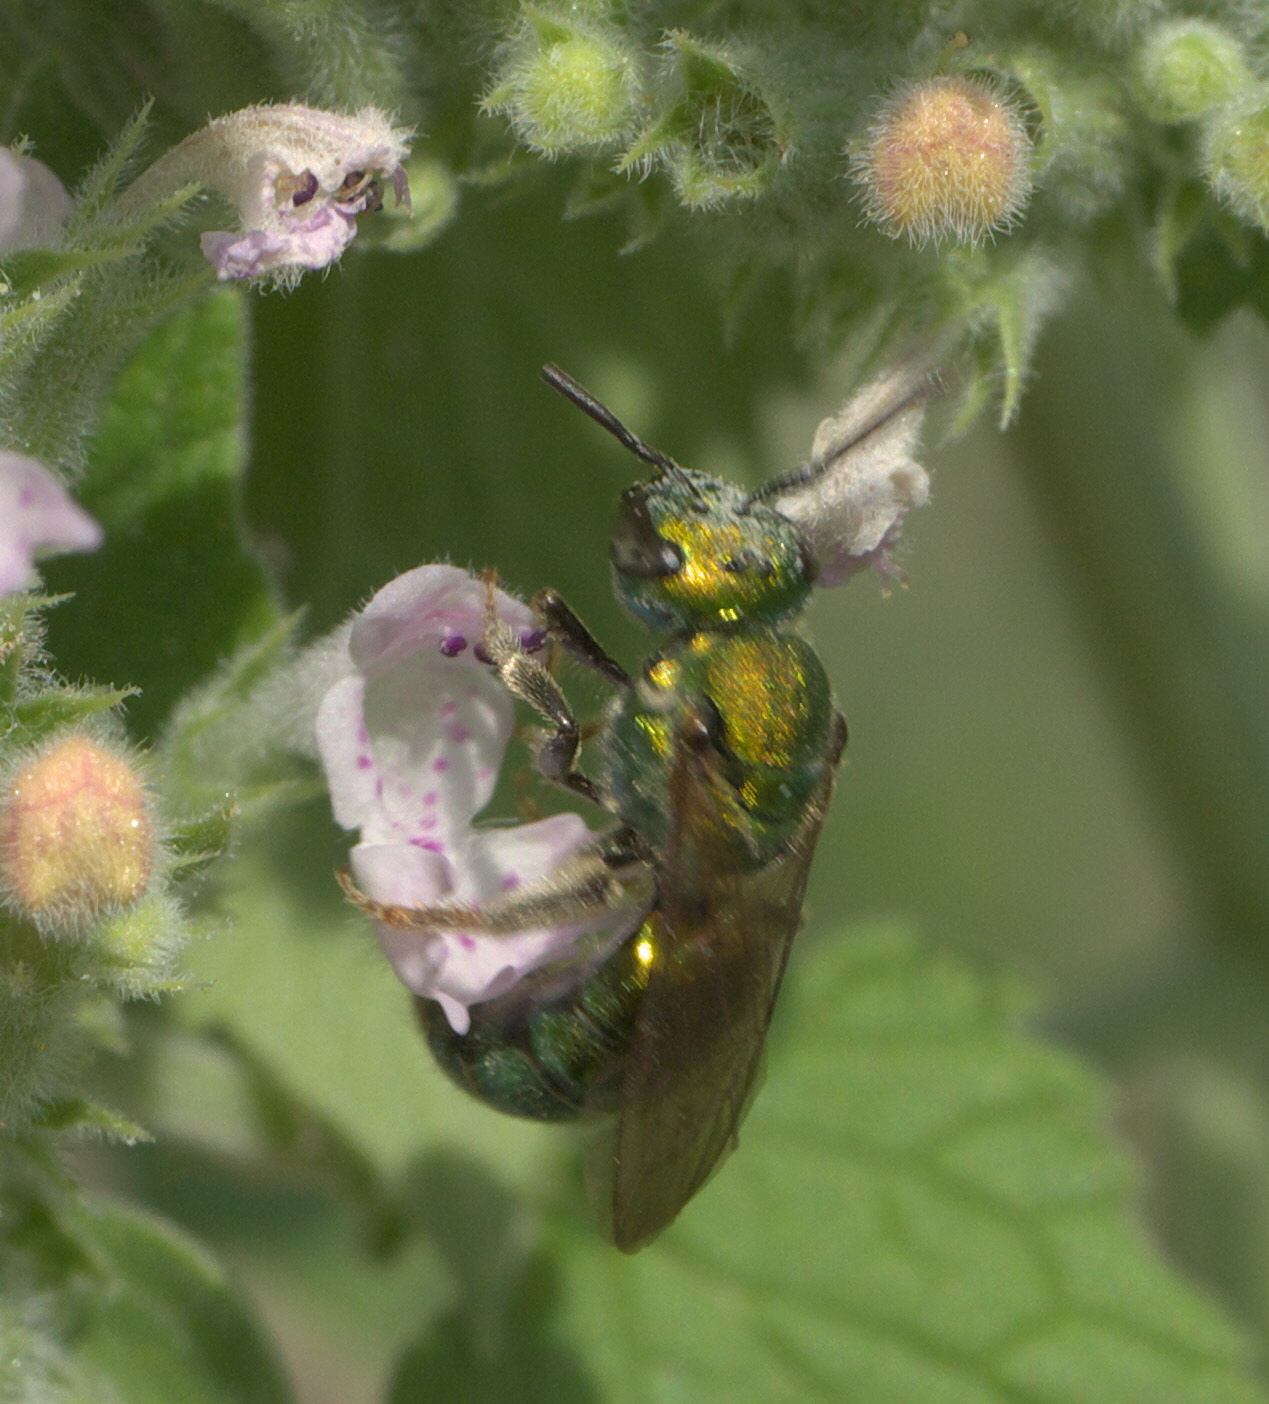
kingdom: Animalia
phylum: Arthropoda
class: Insecta
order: Hymenoptera
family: Halictidae
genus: Augochlora
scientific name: Augochlora pura
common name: Pure green sweat bee
